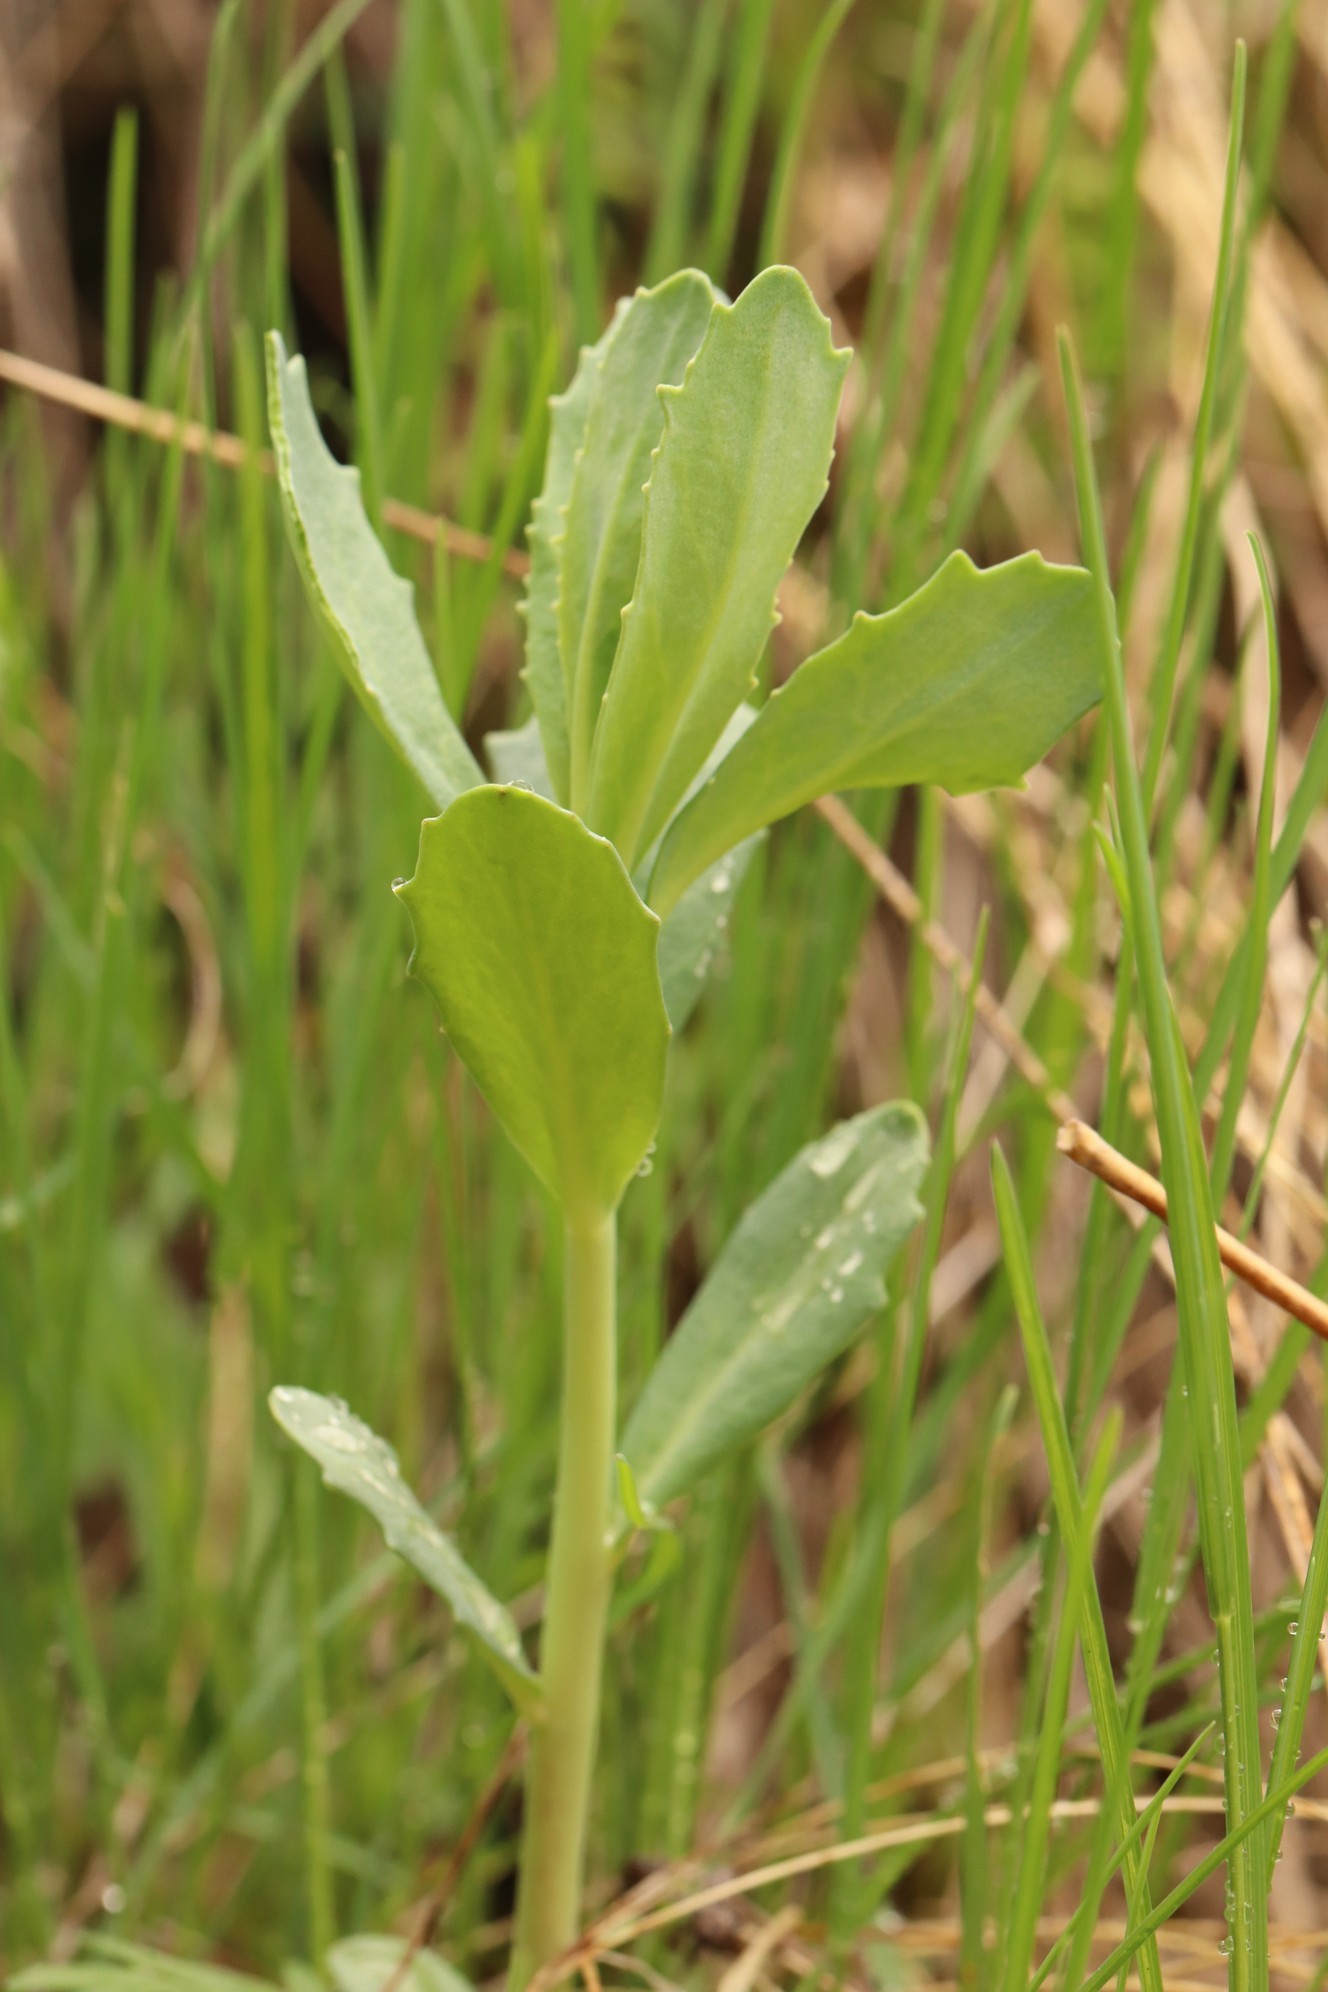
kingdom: Plantae
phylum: Tracheophyta
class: Magnoliopsida
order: Saxifragales
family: Crassulaceae
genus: Hylotelephium
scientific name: Hylotelephium telephium
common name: Live-forever
